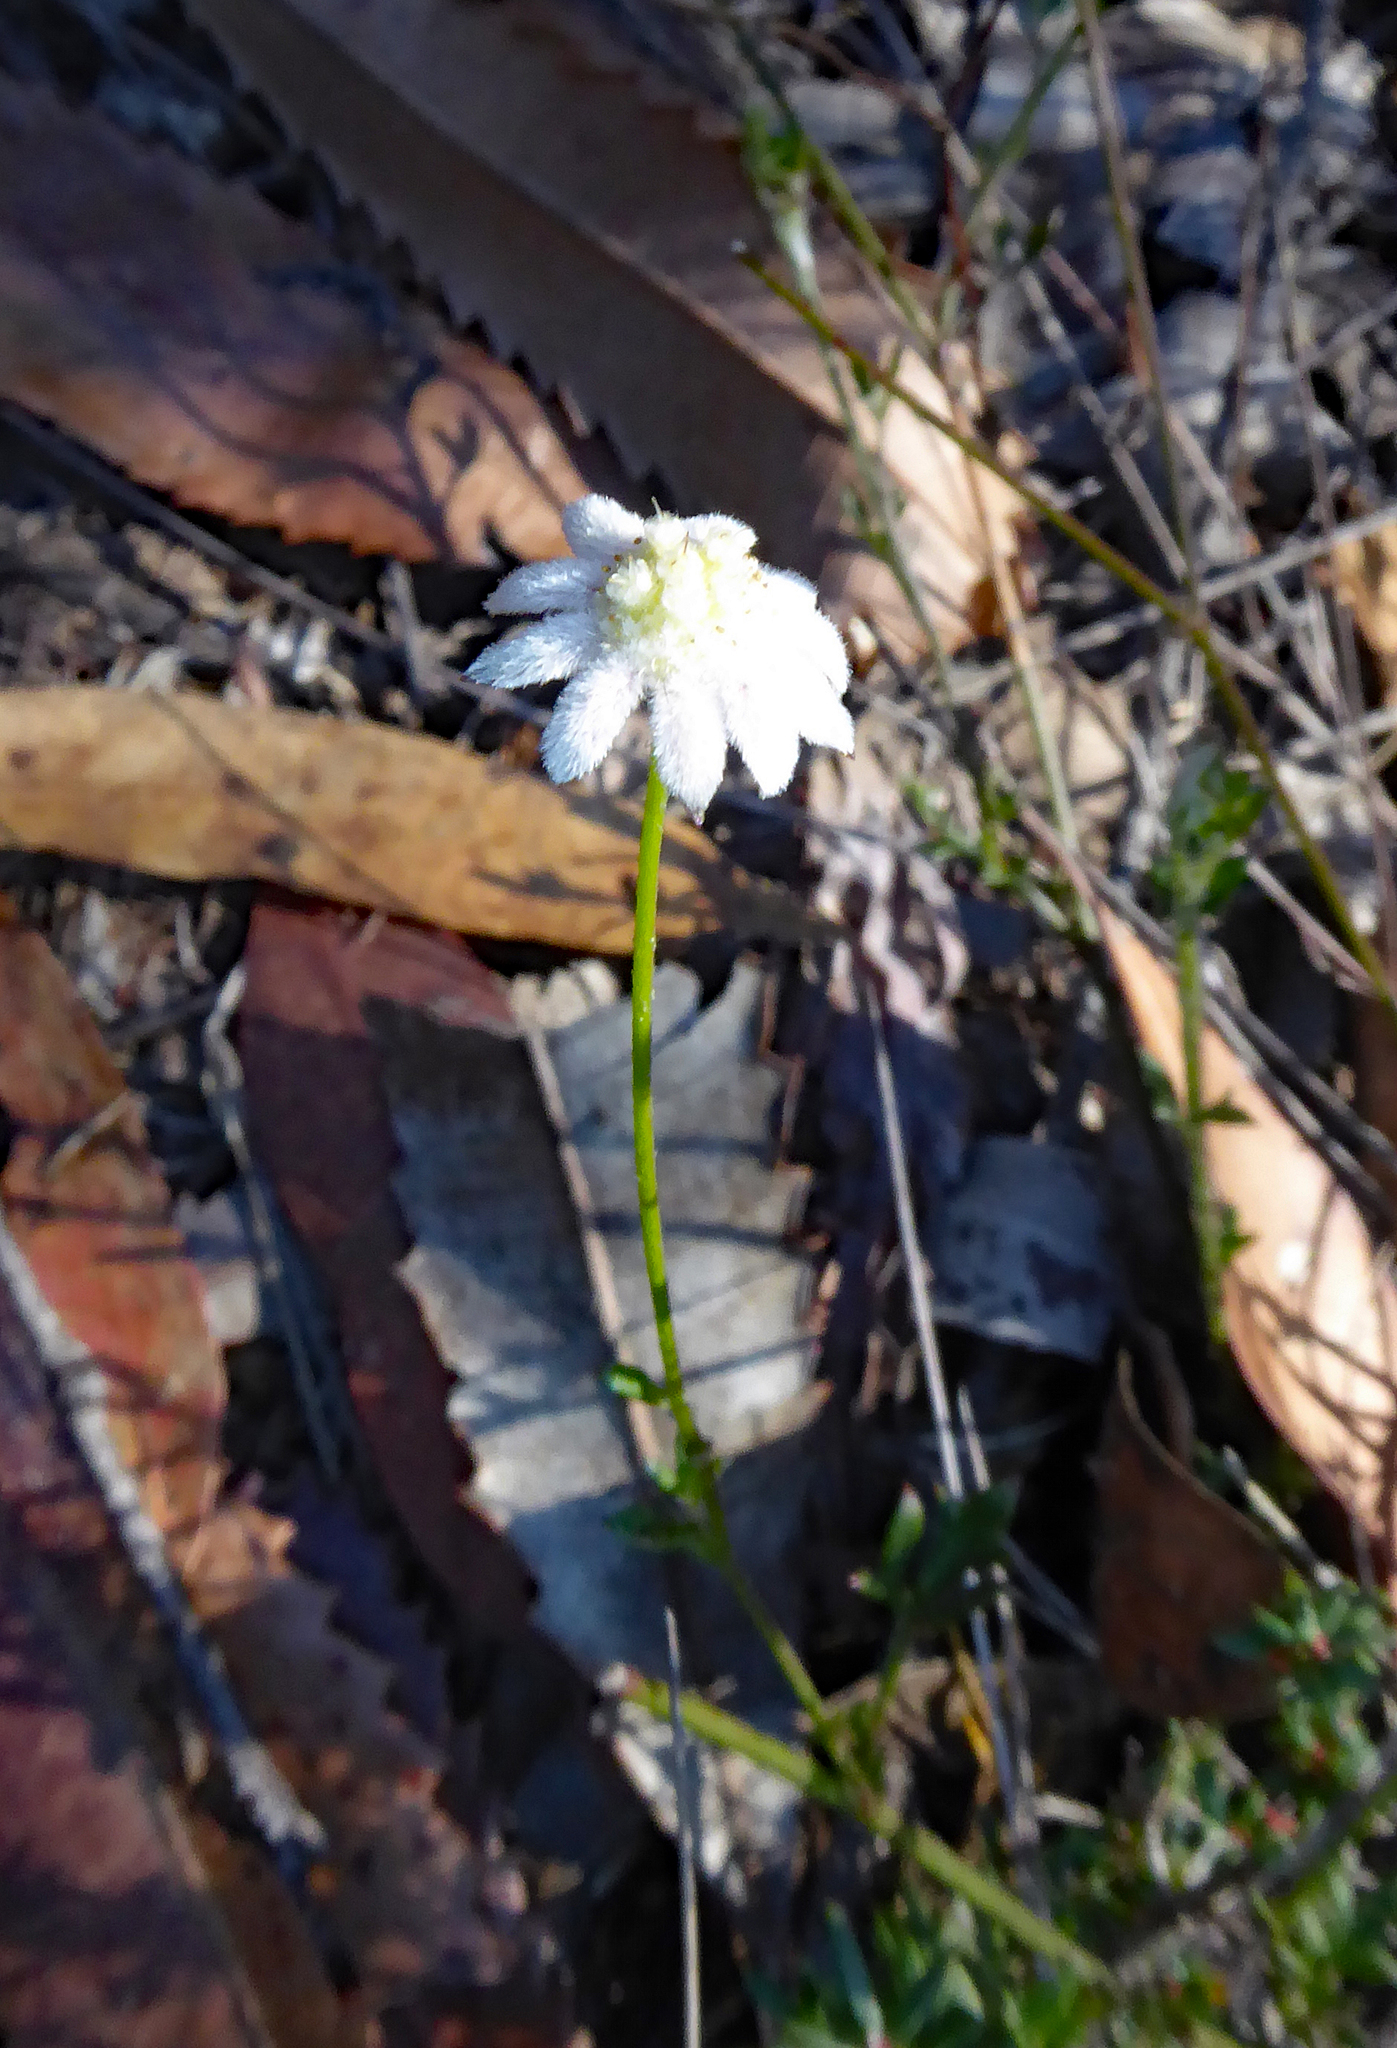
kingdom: Plantae
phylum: Tracheophyta
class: Magnoliopsida
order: Apiales
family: Apiaceae
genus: Actinotus
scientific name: Actinotus minor
